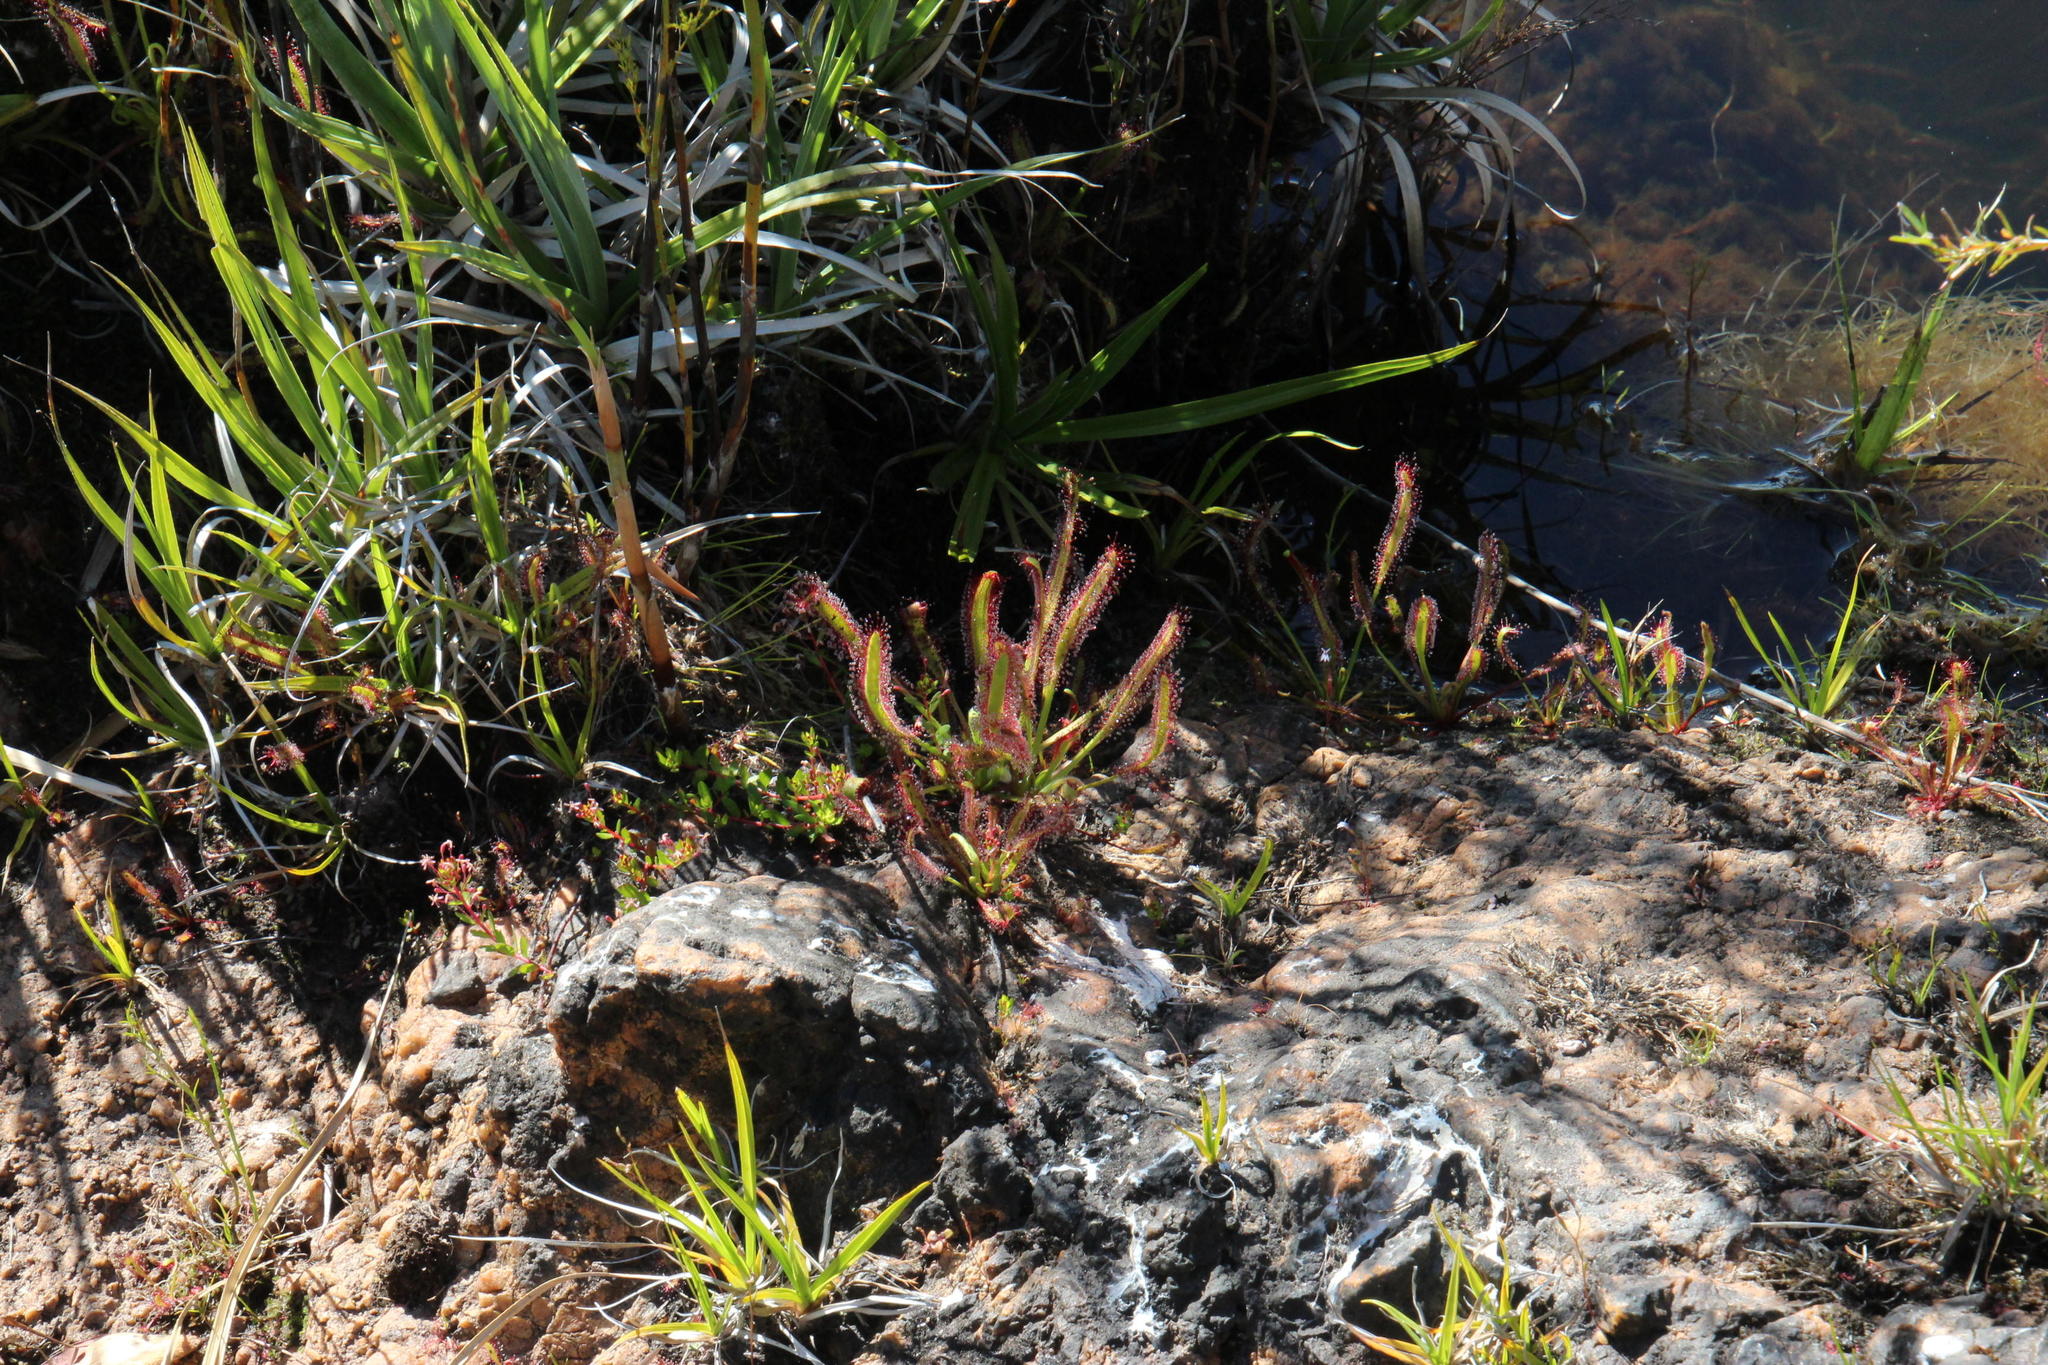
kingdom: Plantae
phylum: Tracheophyta
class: Magnoliopsida
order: Caryophyllales
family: Droseraceae
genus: Drosera
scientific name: Drosera capensis
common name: Cape sundew
